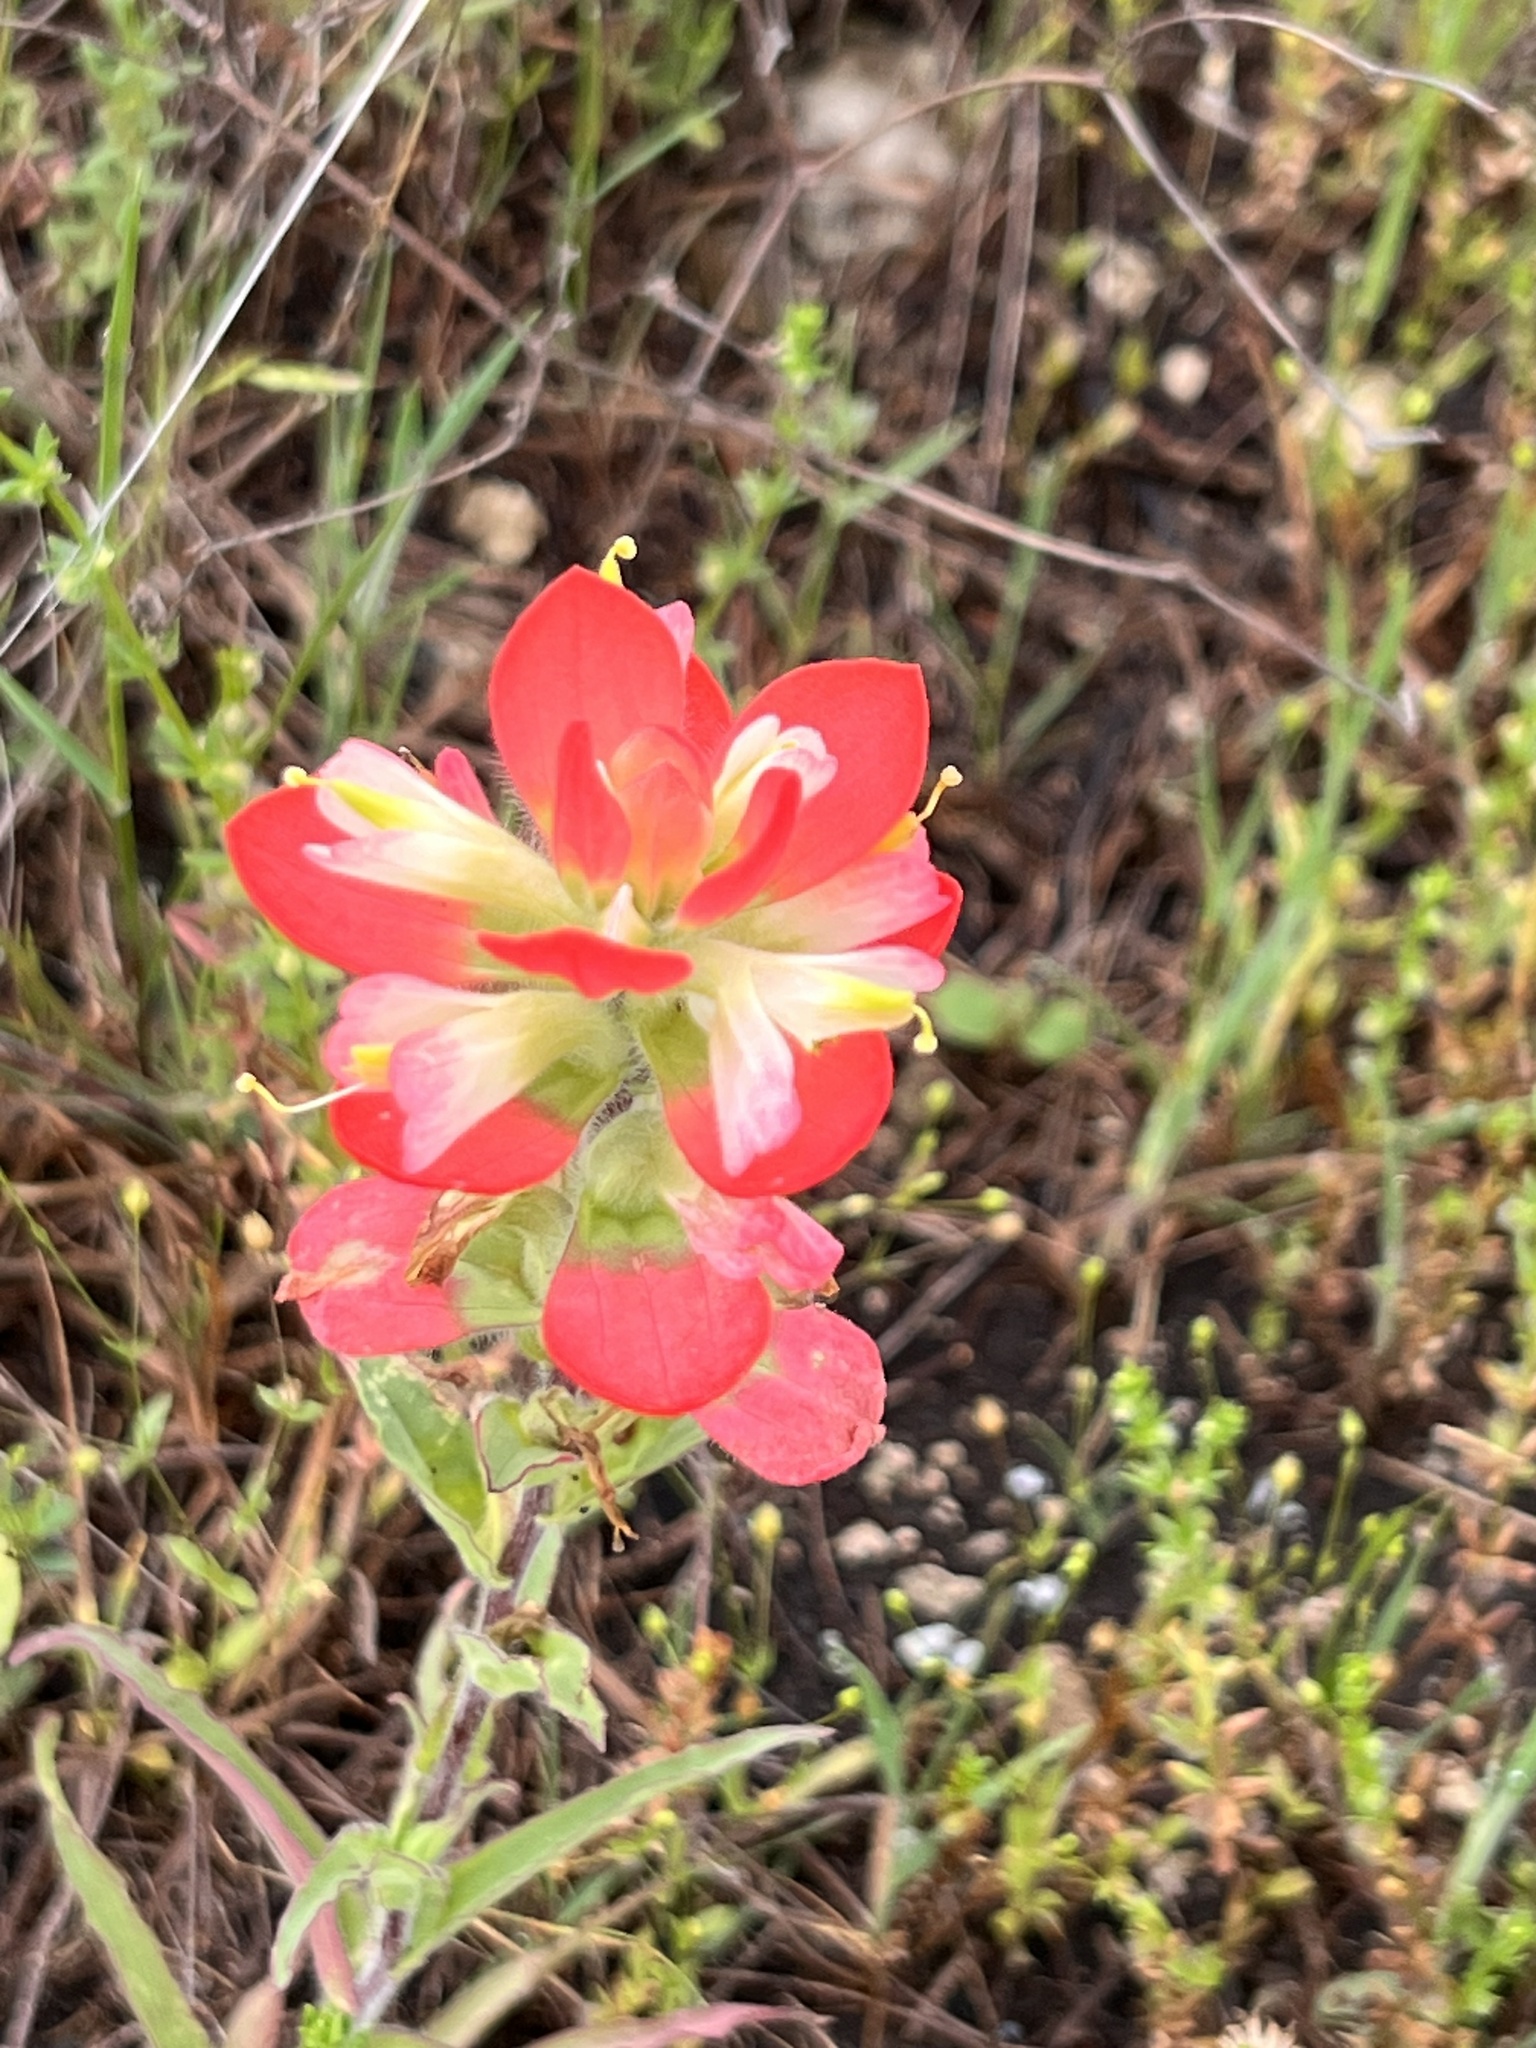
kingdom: Plantae
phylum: Tracheophyta
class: Magnoliopsida
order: Lamiales
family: Orobanchaceae
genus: Castilleja
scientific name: Castilleja indivisa
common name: Texas paintbrush
